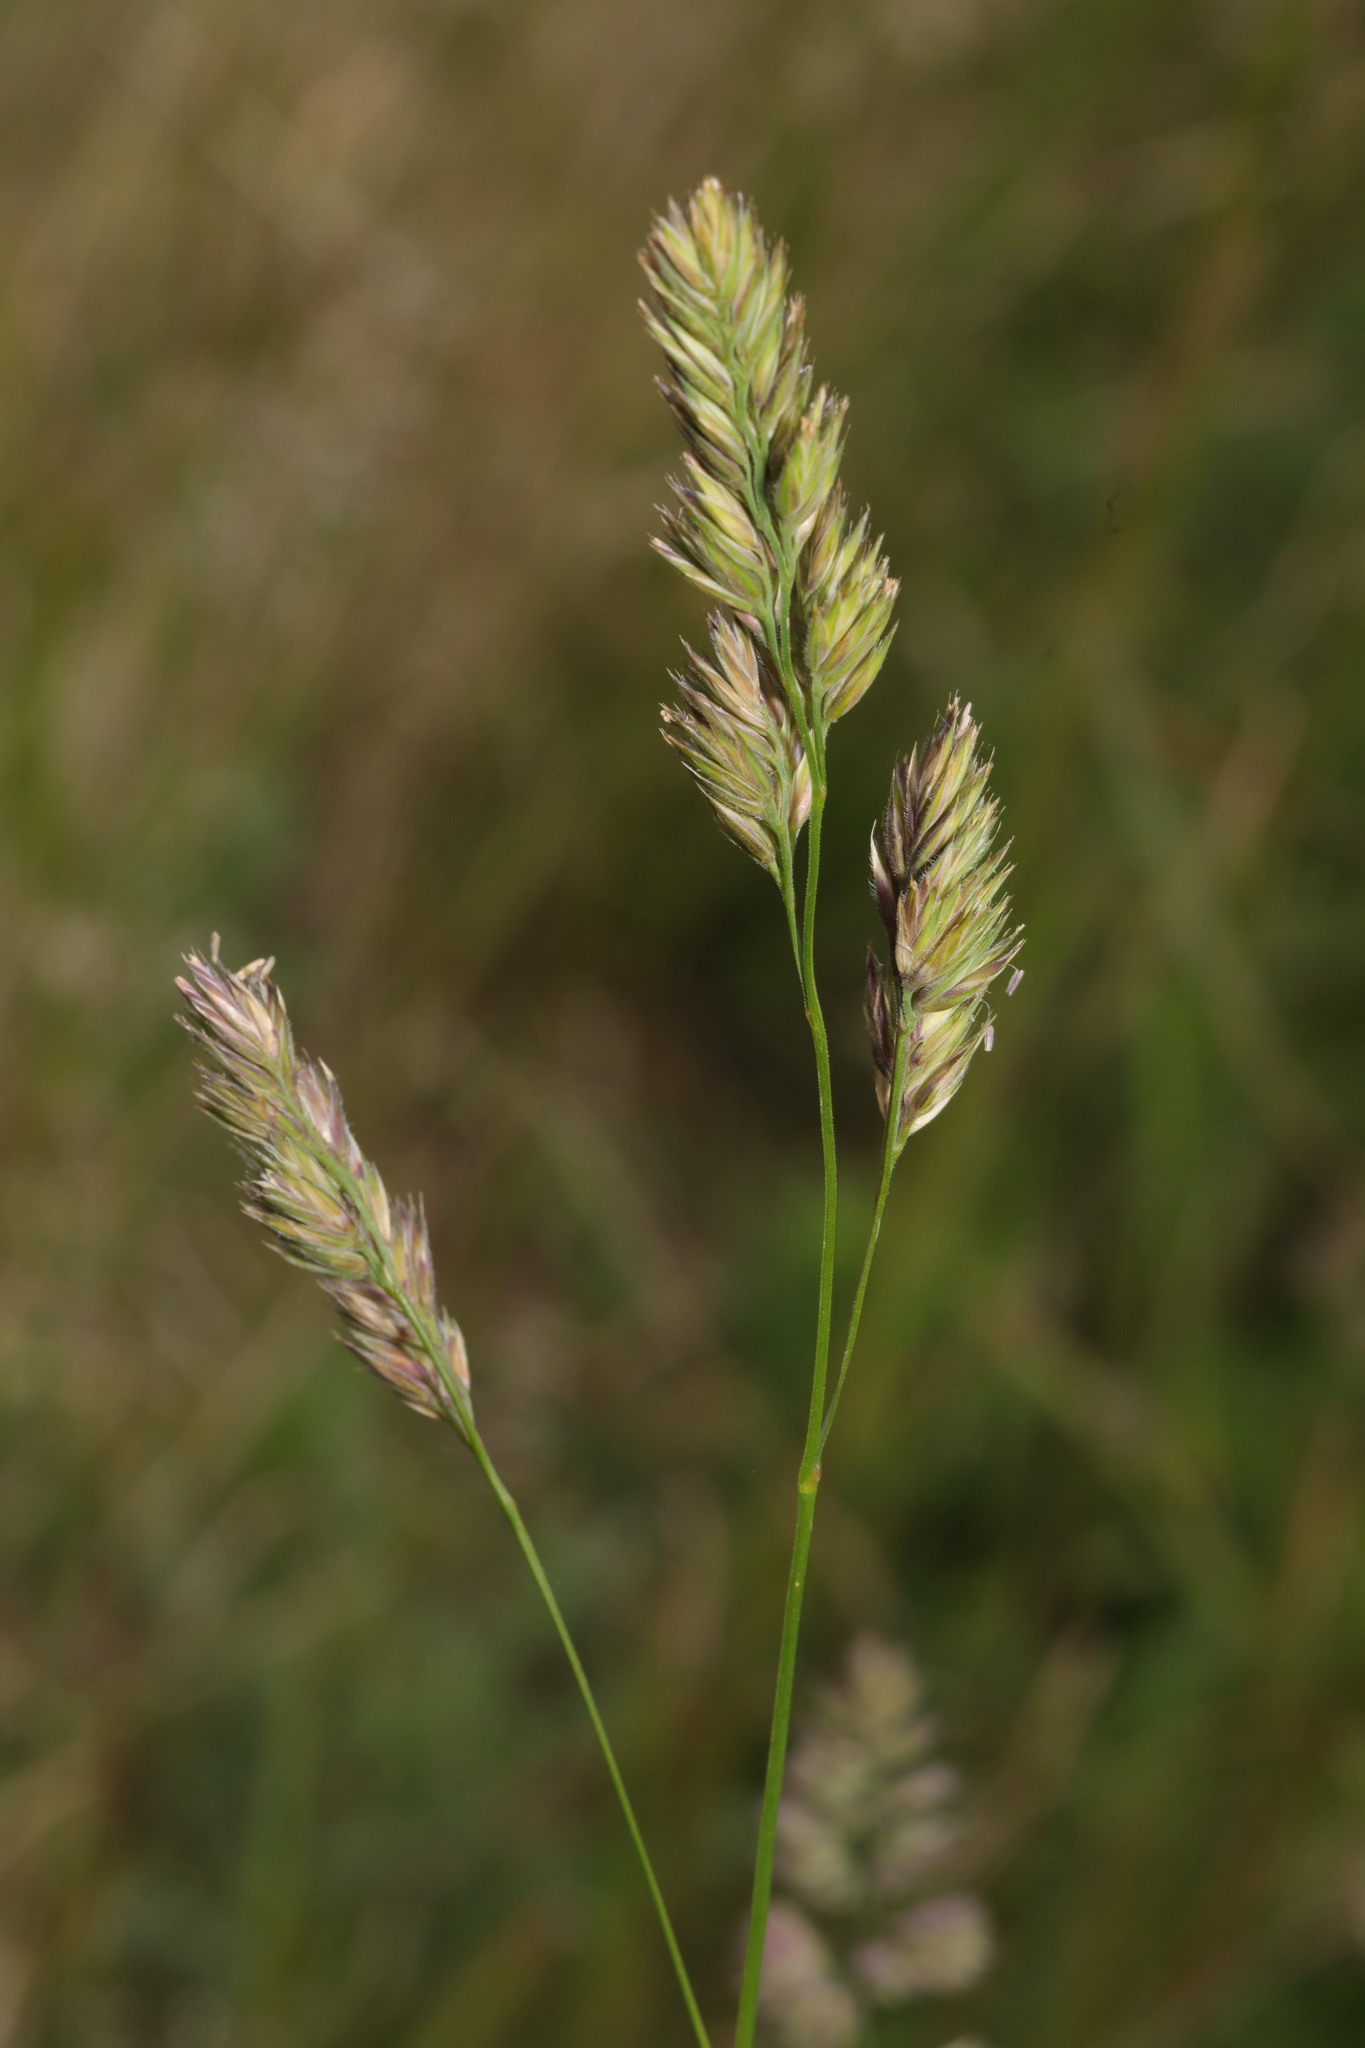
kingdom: Plantae
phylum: Tracheophyta
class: Liliopsida
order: Poales
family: Poaceae
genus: Dactylis
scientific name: Dactylis glomerata
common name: Orchardgrass
